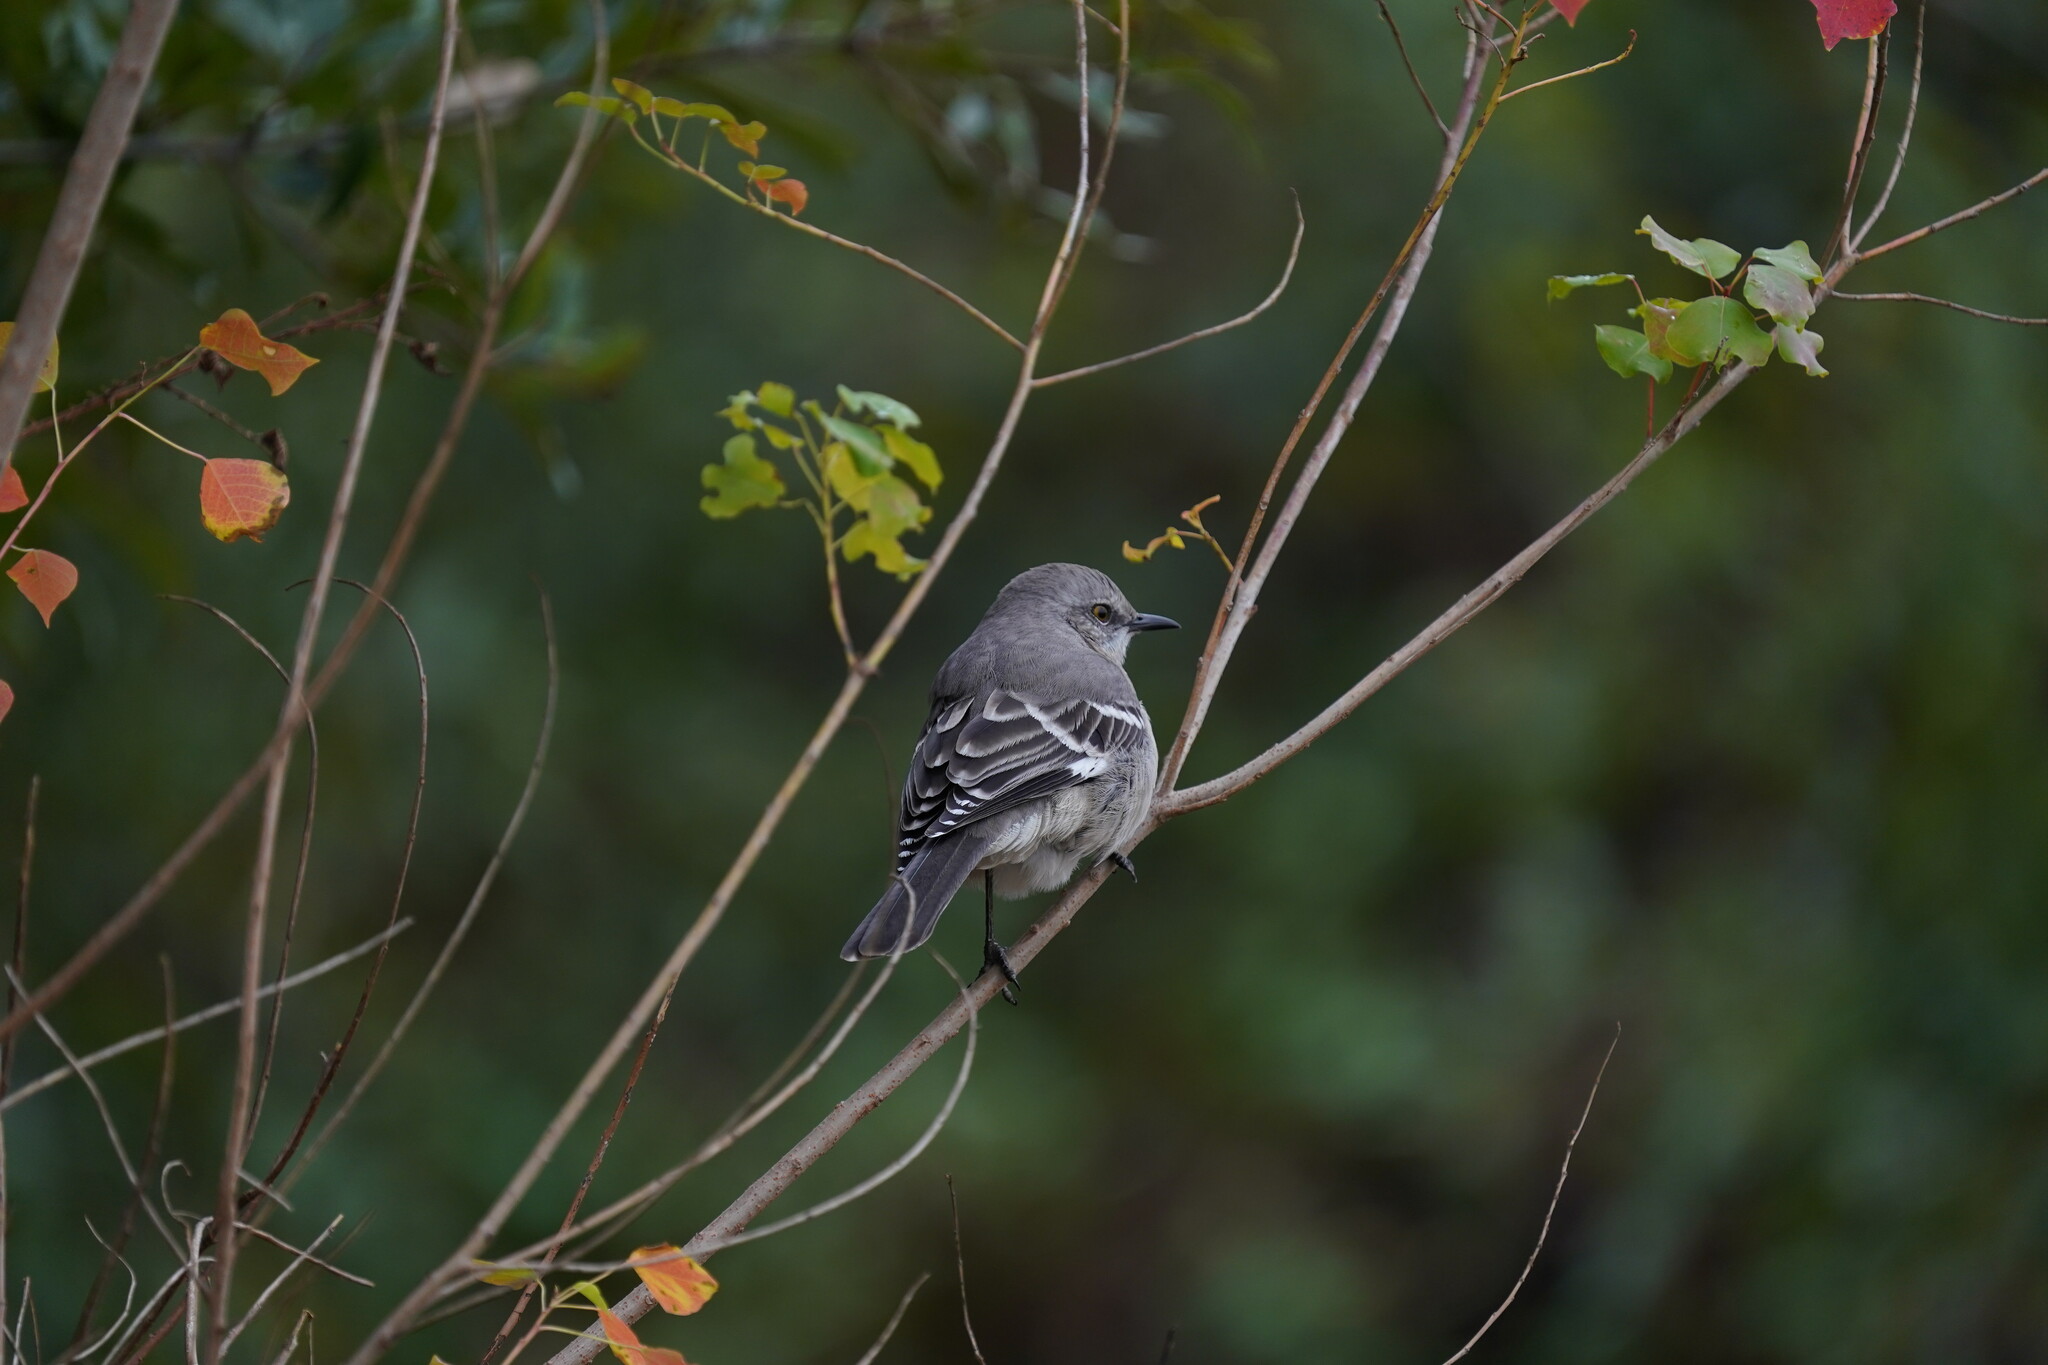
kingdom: Animalia
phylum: Chordata
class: Aves
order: Passeriformes
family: Mimidae
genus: Mimus
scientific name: Mimus polyglottos
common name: Northern mockingbird
